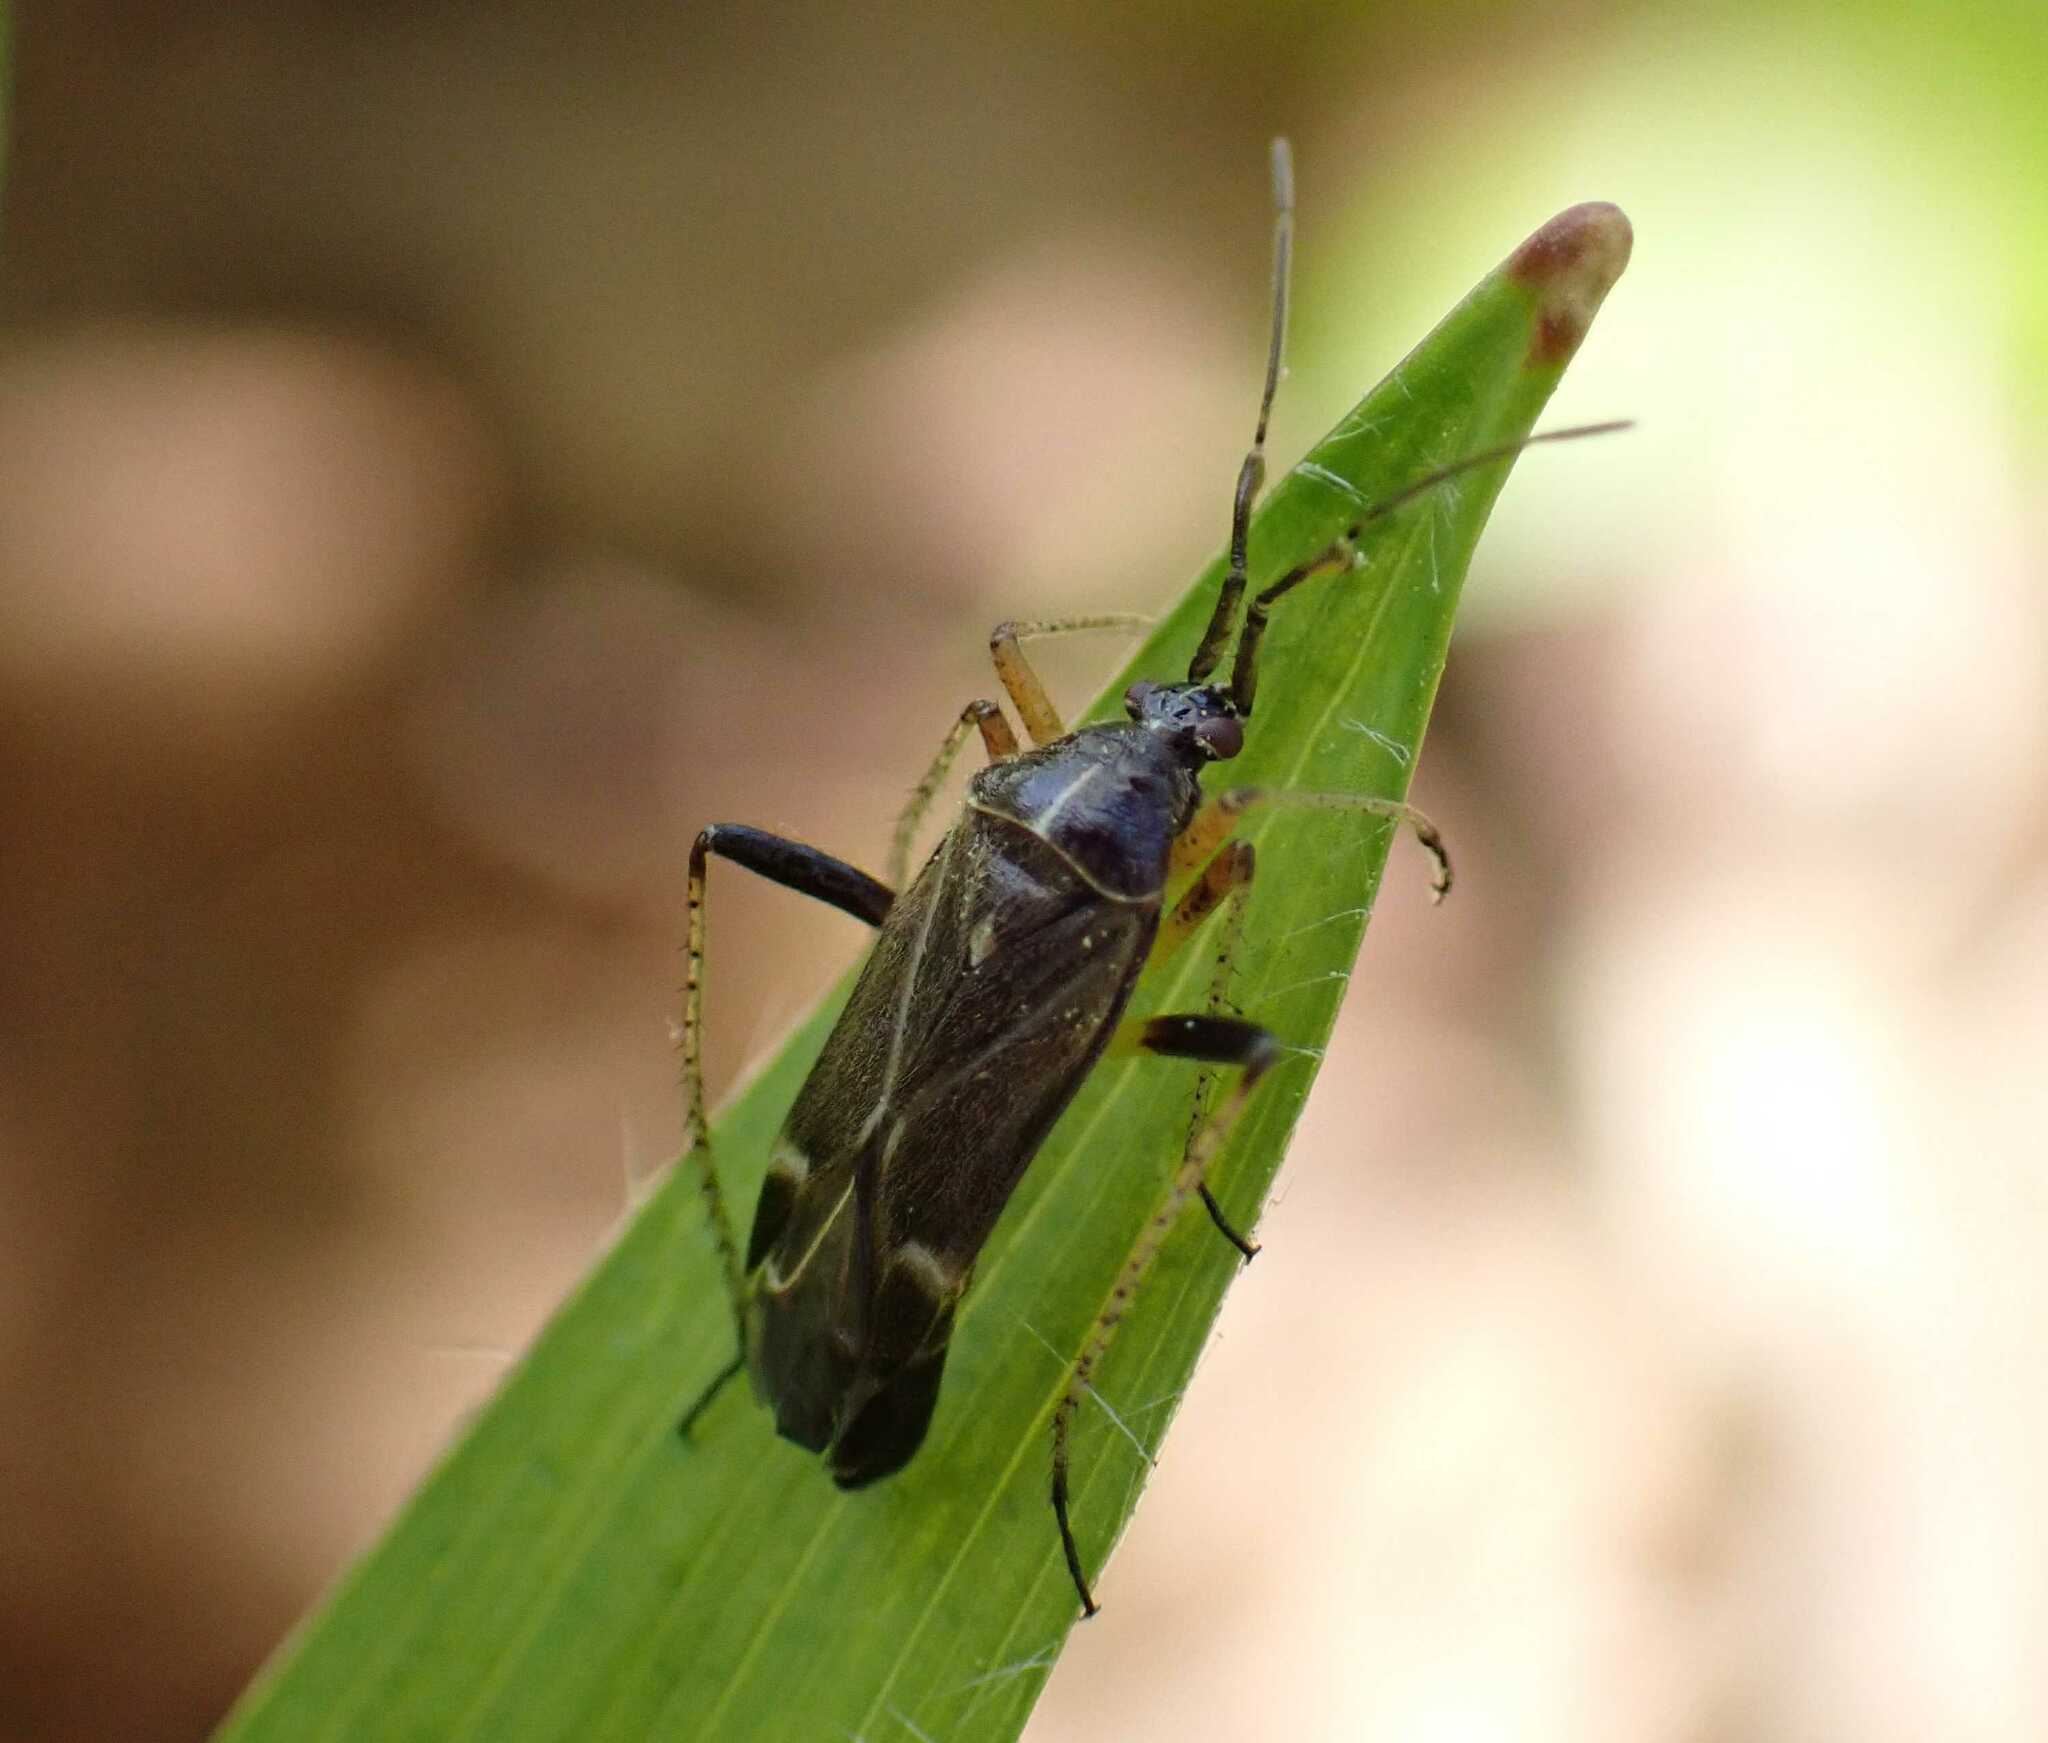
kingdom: Animalia
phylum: Arthropoda
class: Insecta
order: Hemiptera
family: Miridae
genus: Harpocera
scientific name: Harpocera thoracica
